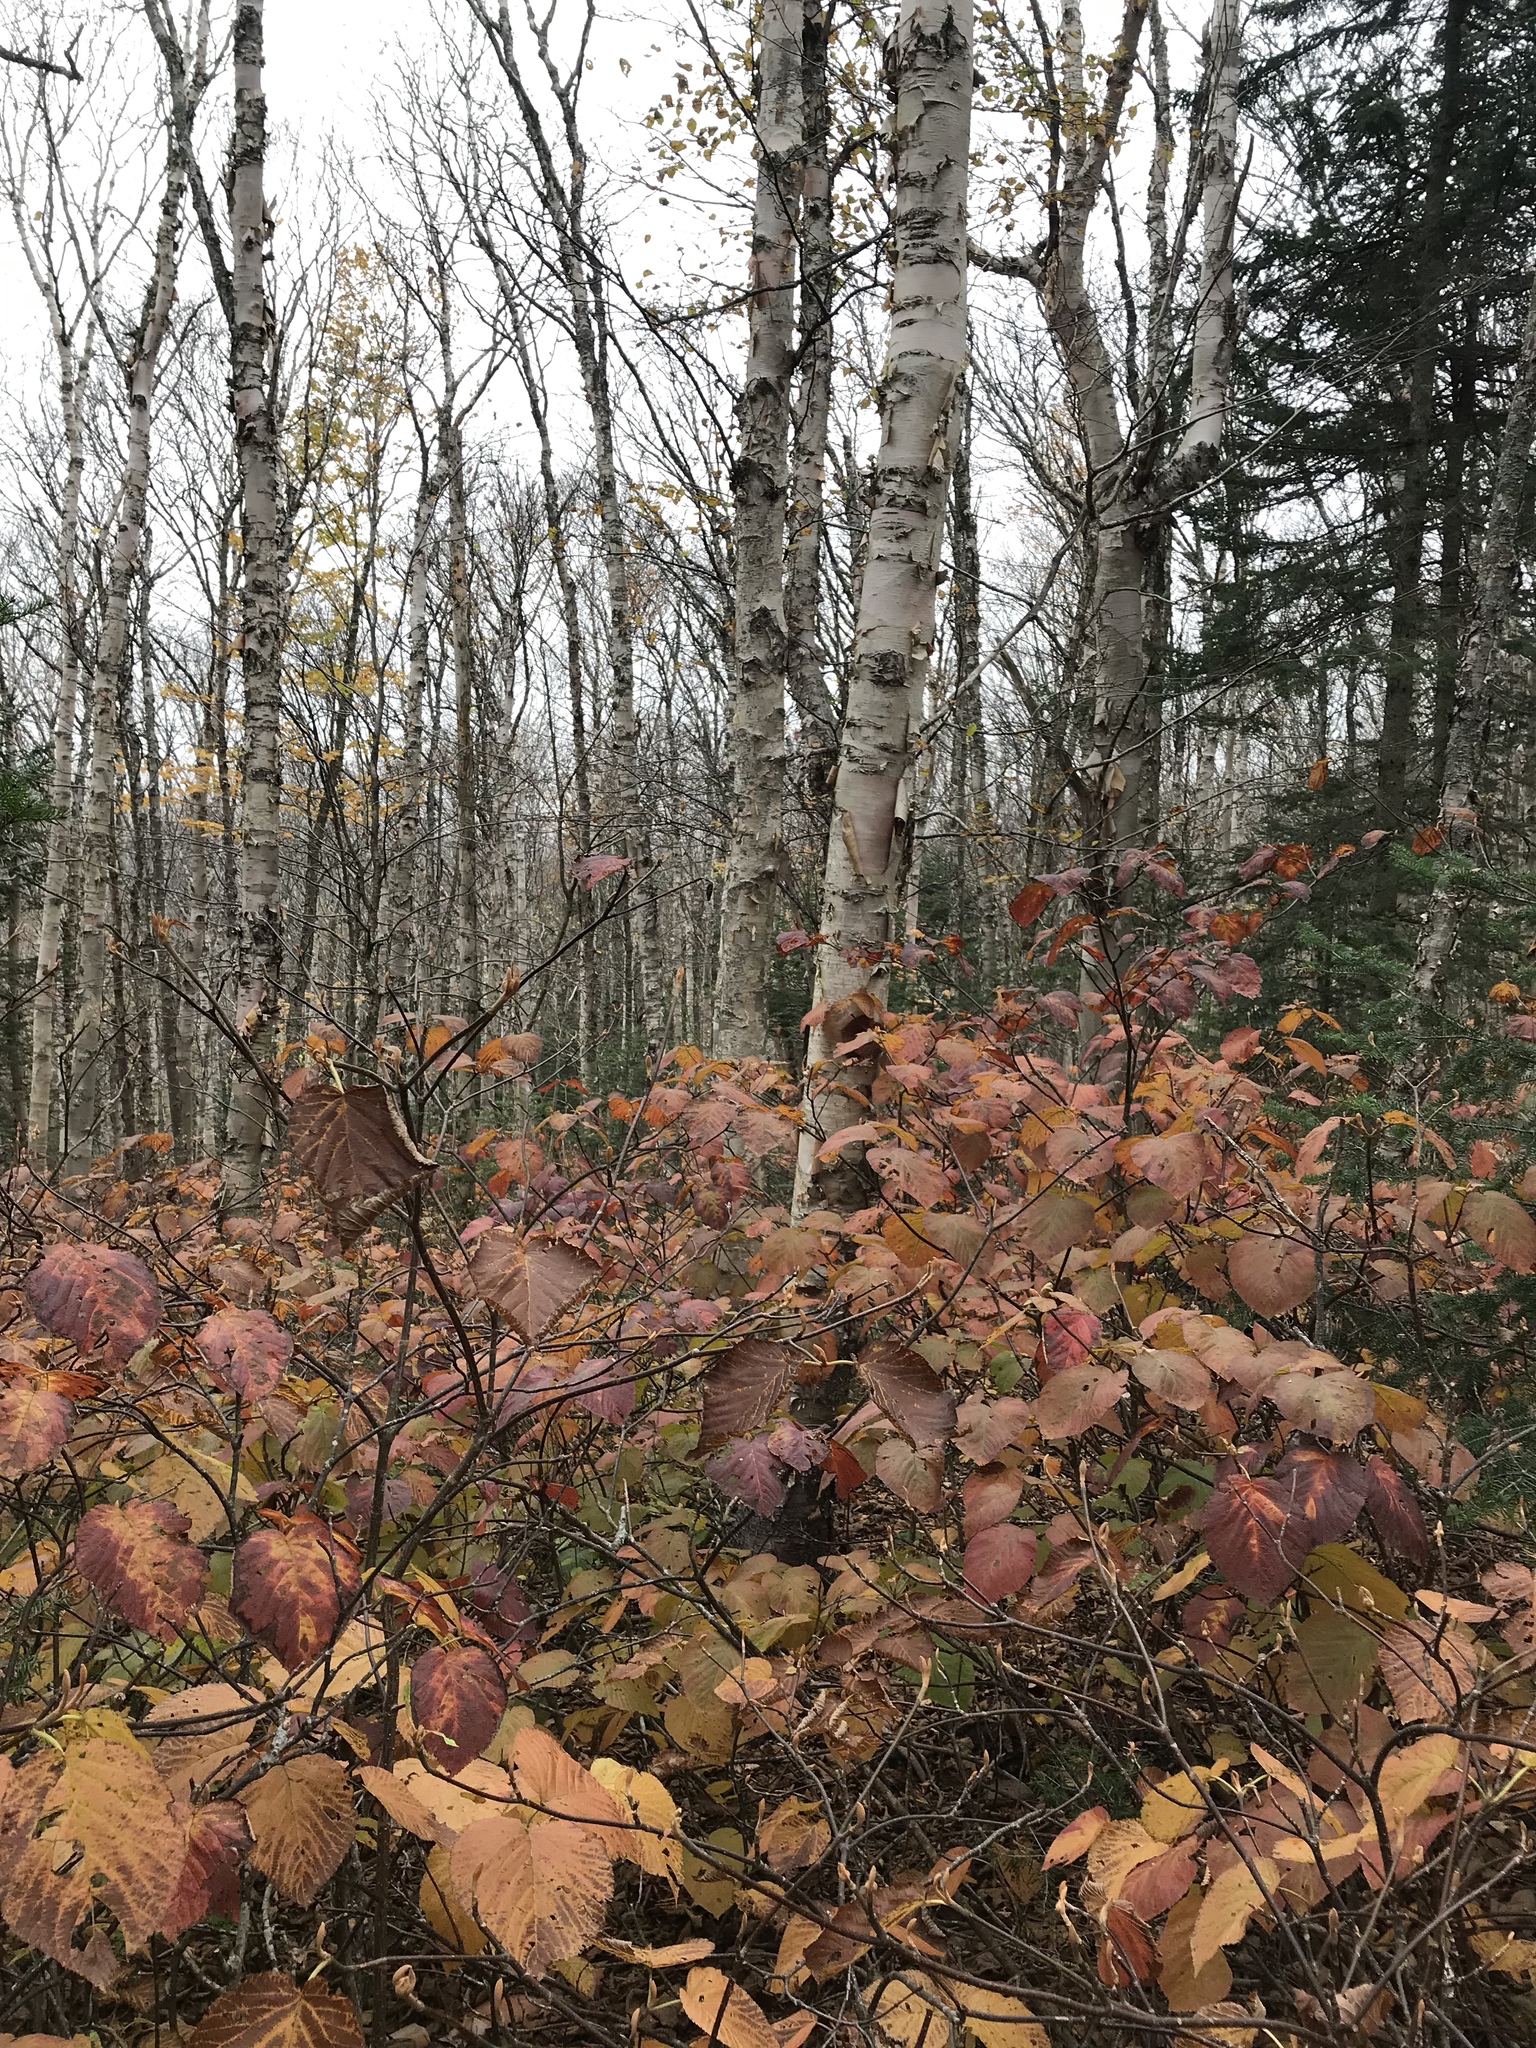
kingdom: Plantae
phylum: Tracheophyta
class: Magnoliopsida
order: Dipsacales
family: Viburnaceae
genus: Viburnum
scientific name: Viburnum lantanoides
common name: Hobblebush
